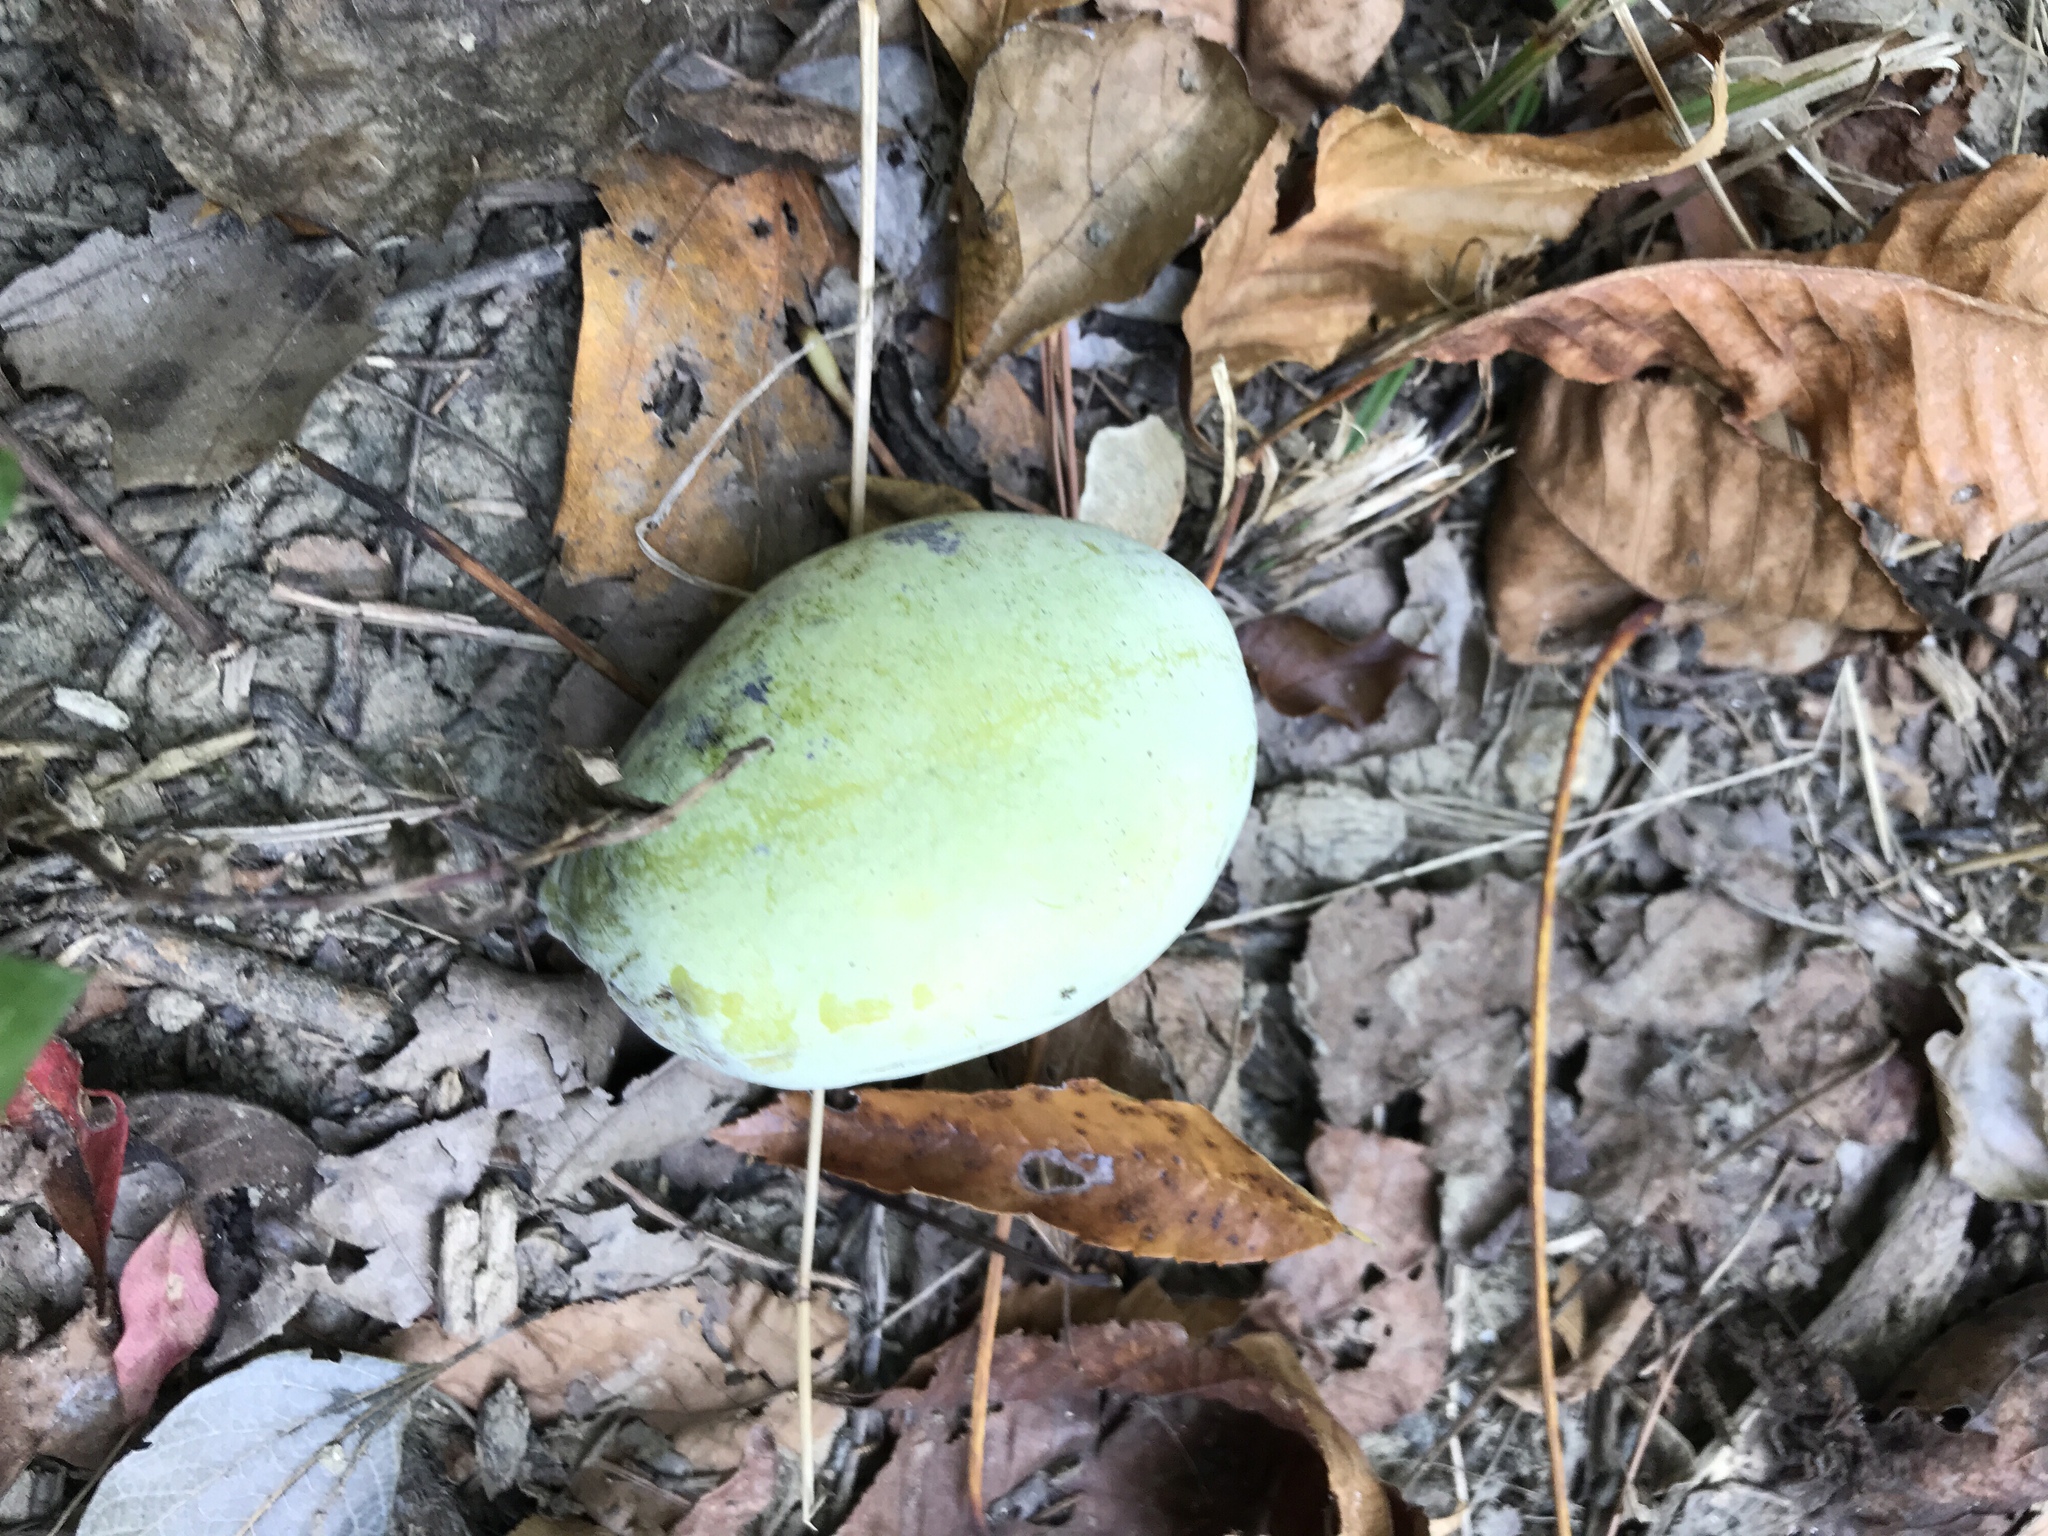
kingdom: Plantae
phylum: Tracheophyta
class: Magnoliopsida
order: Magnoliales
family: Annonaceae
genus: Asimina
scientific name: Asimina triloba
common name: Dog-banana
